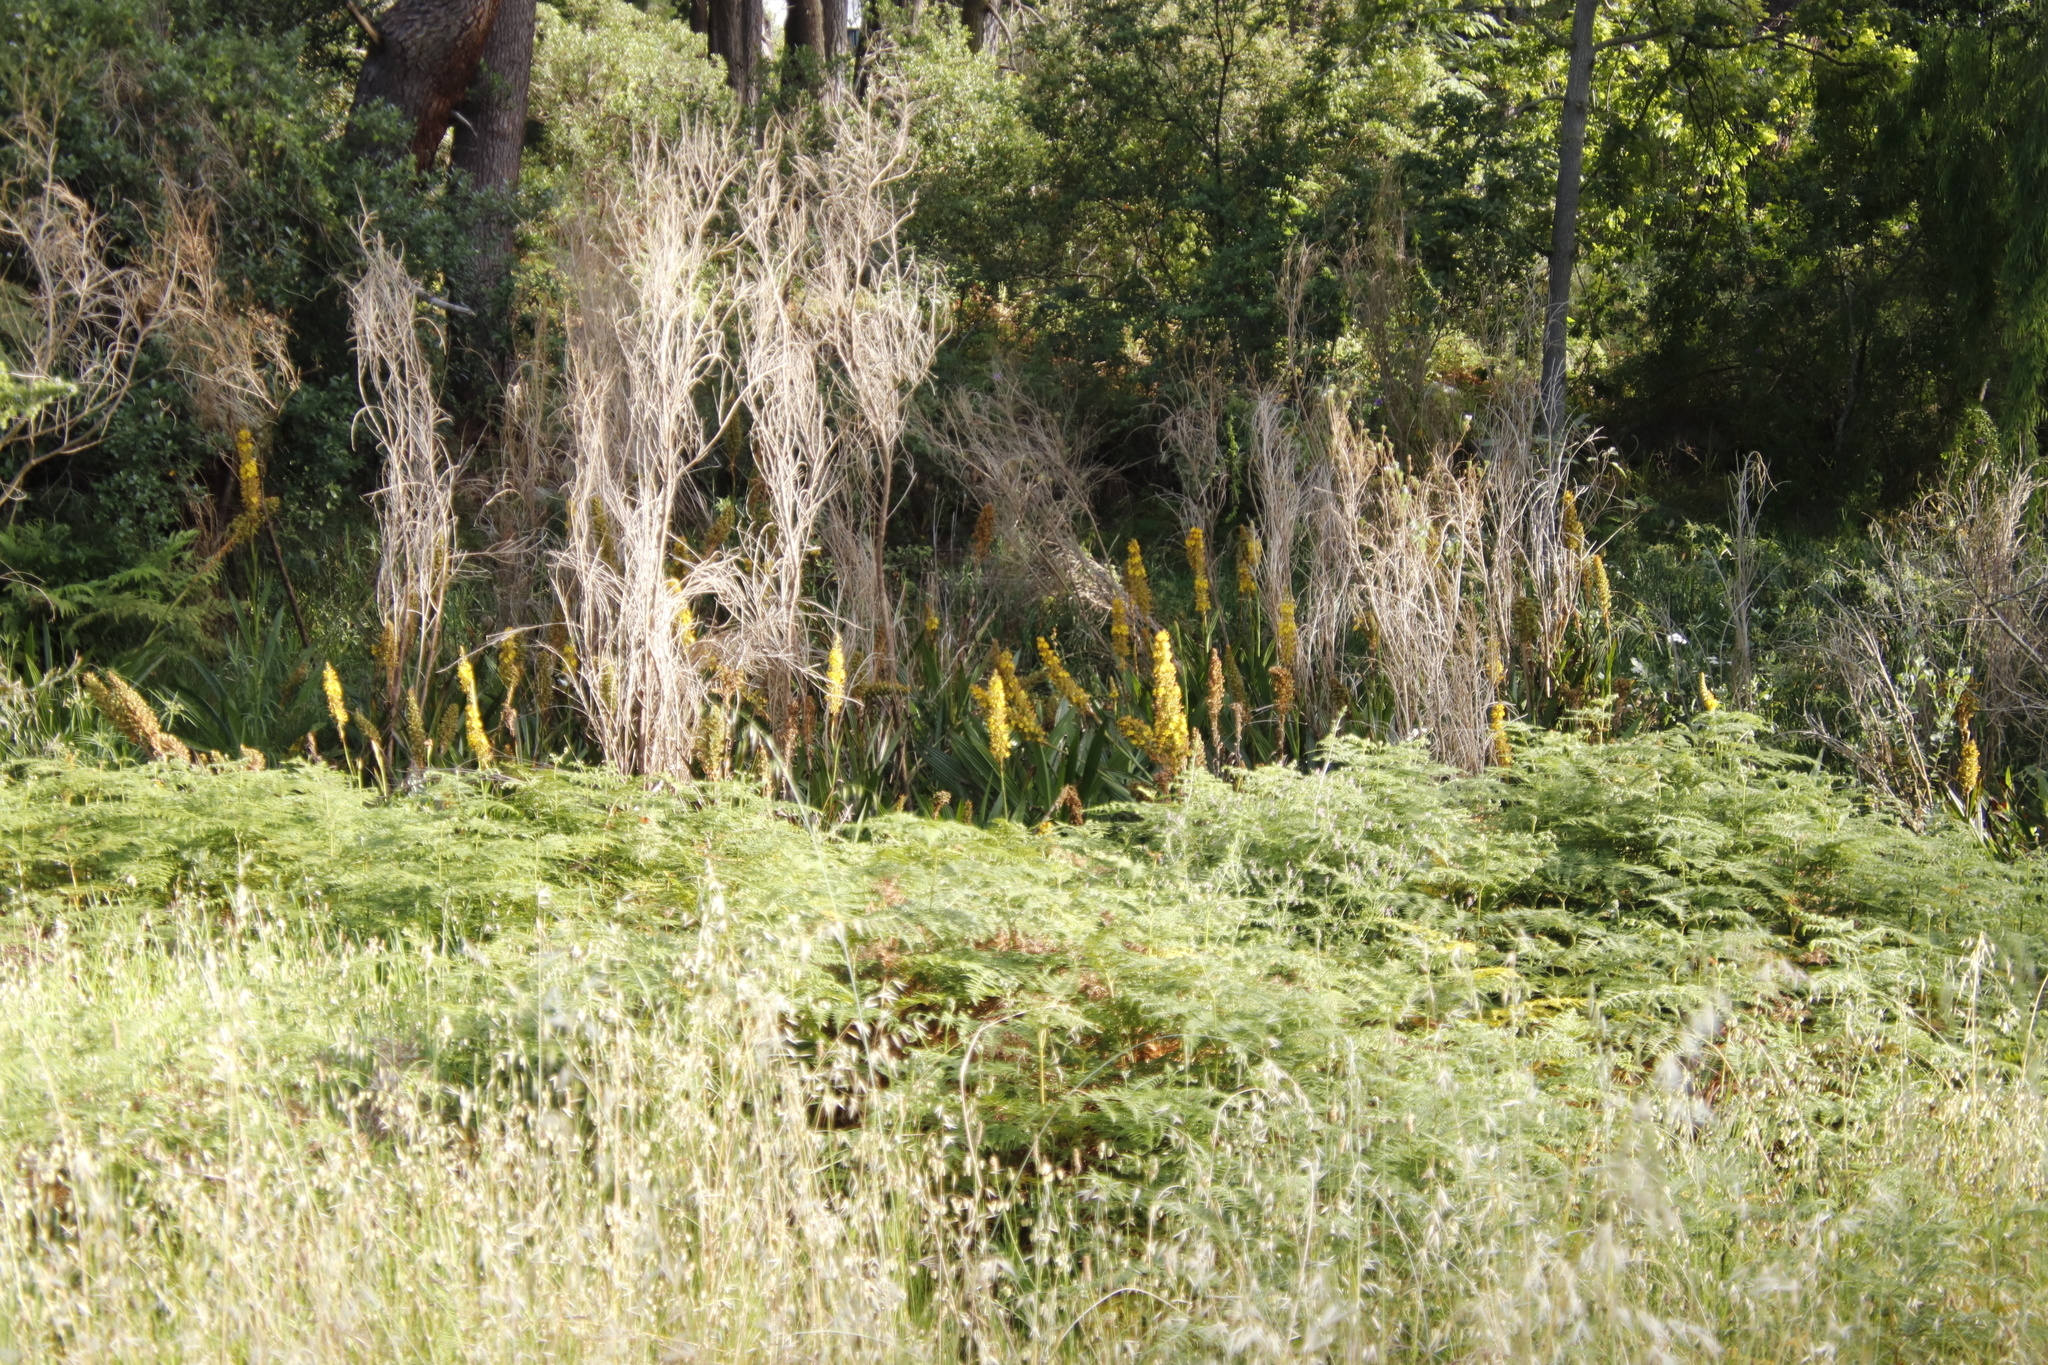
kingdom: Plantae
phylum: Tracheophyta
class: Liliopsida
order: Commelinales
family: Haemodoraceae
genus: Wachendorfia
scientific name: Wachendorfia thyrsiflora
